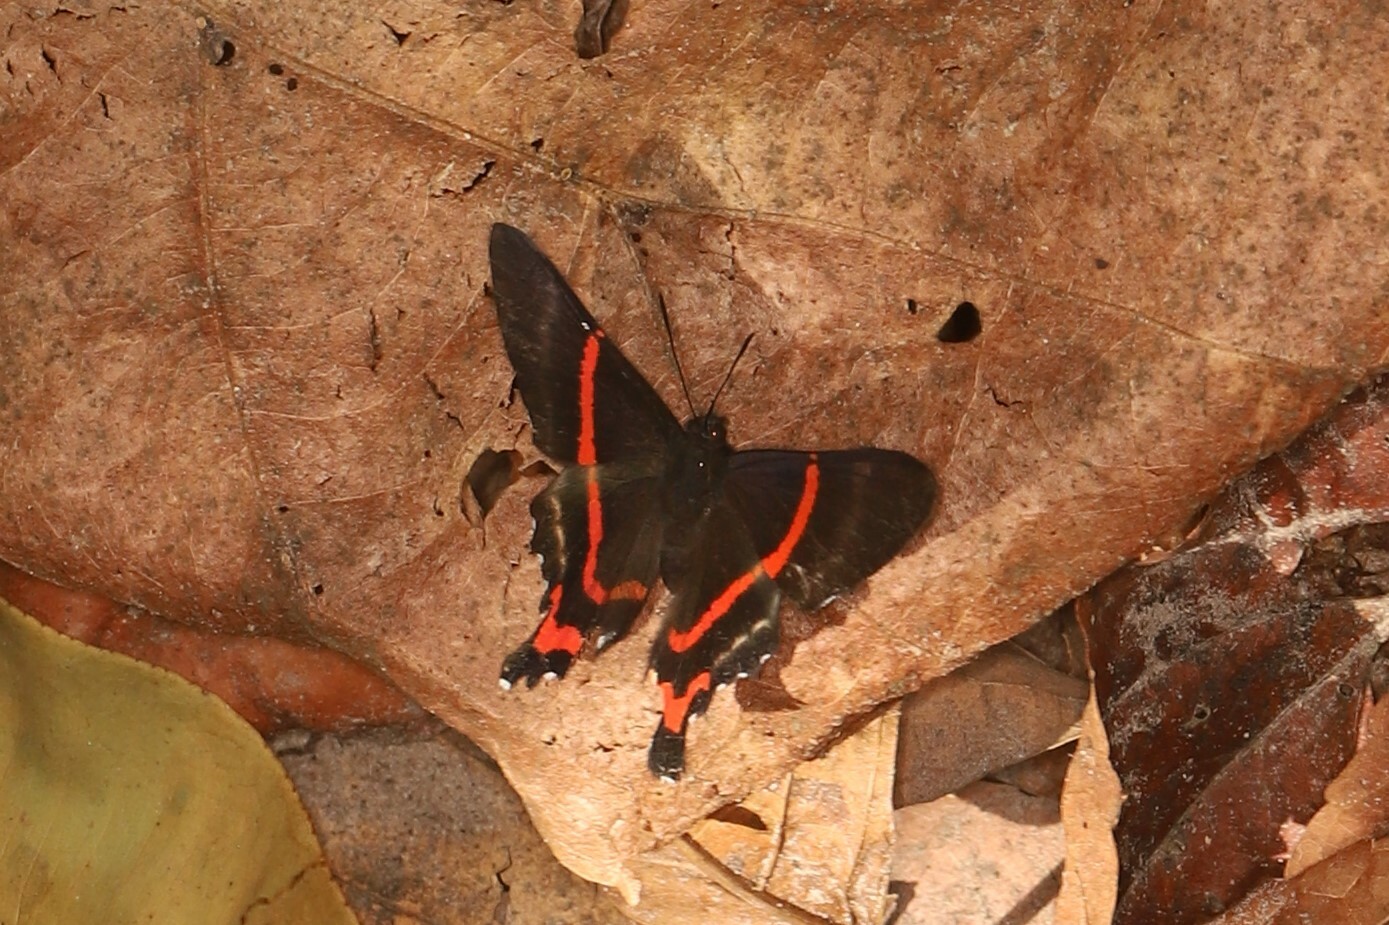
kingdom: Animalia
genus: Ancyluris
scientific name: Ancyluris aulestes
